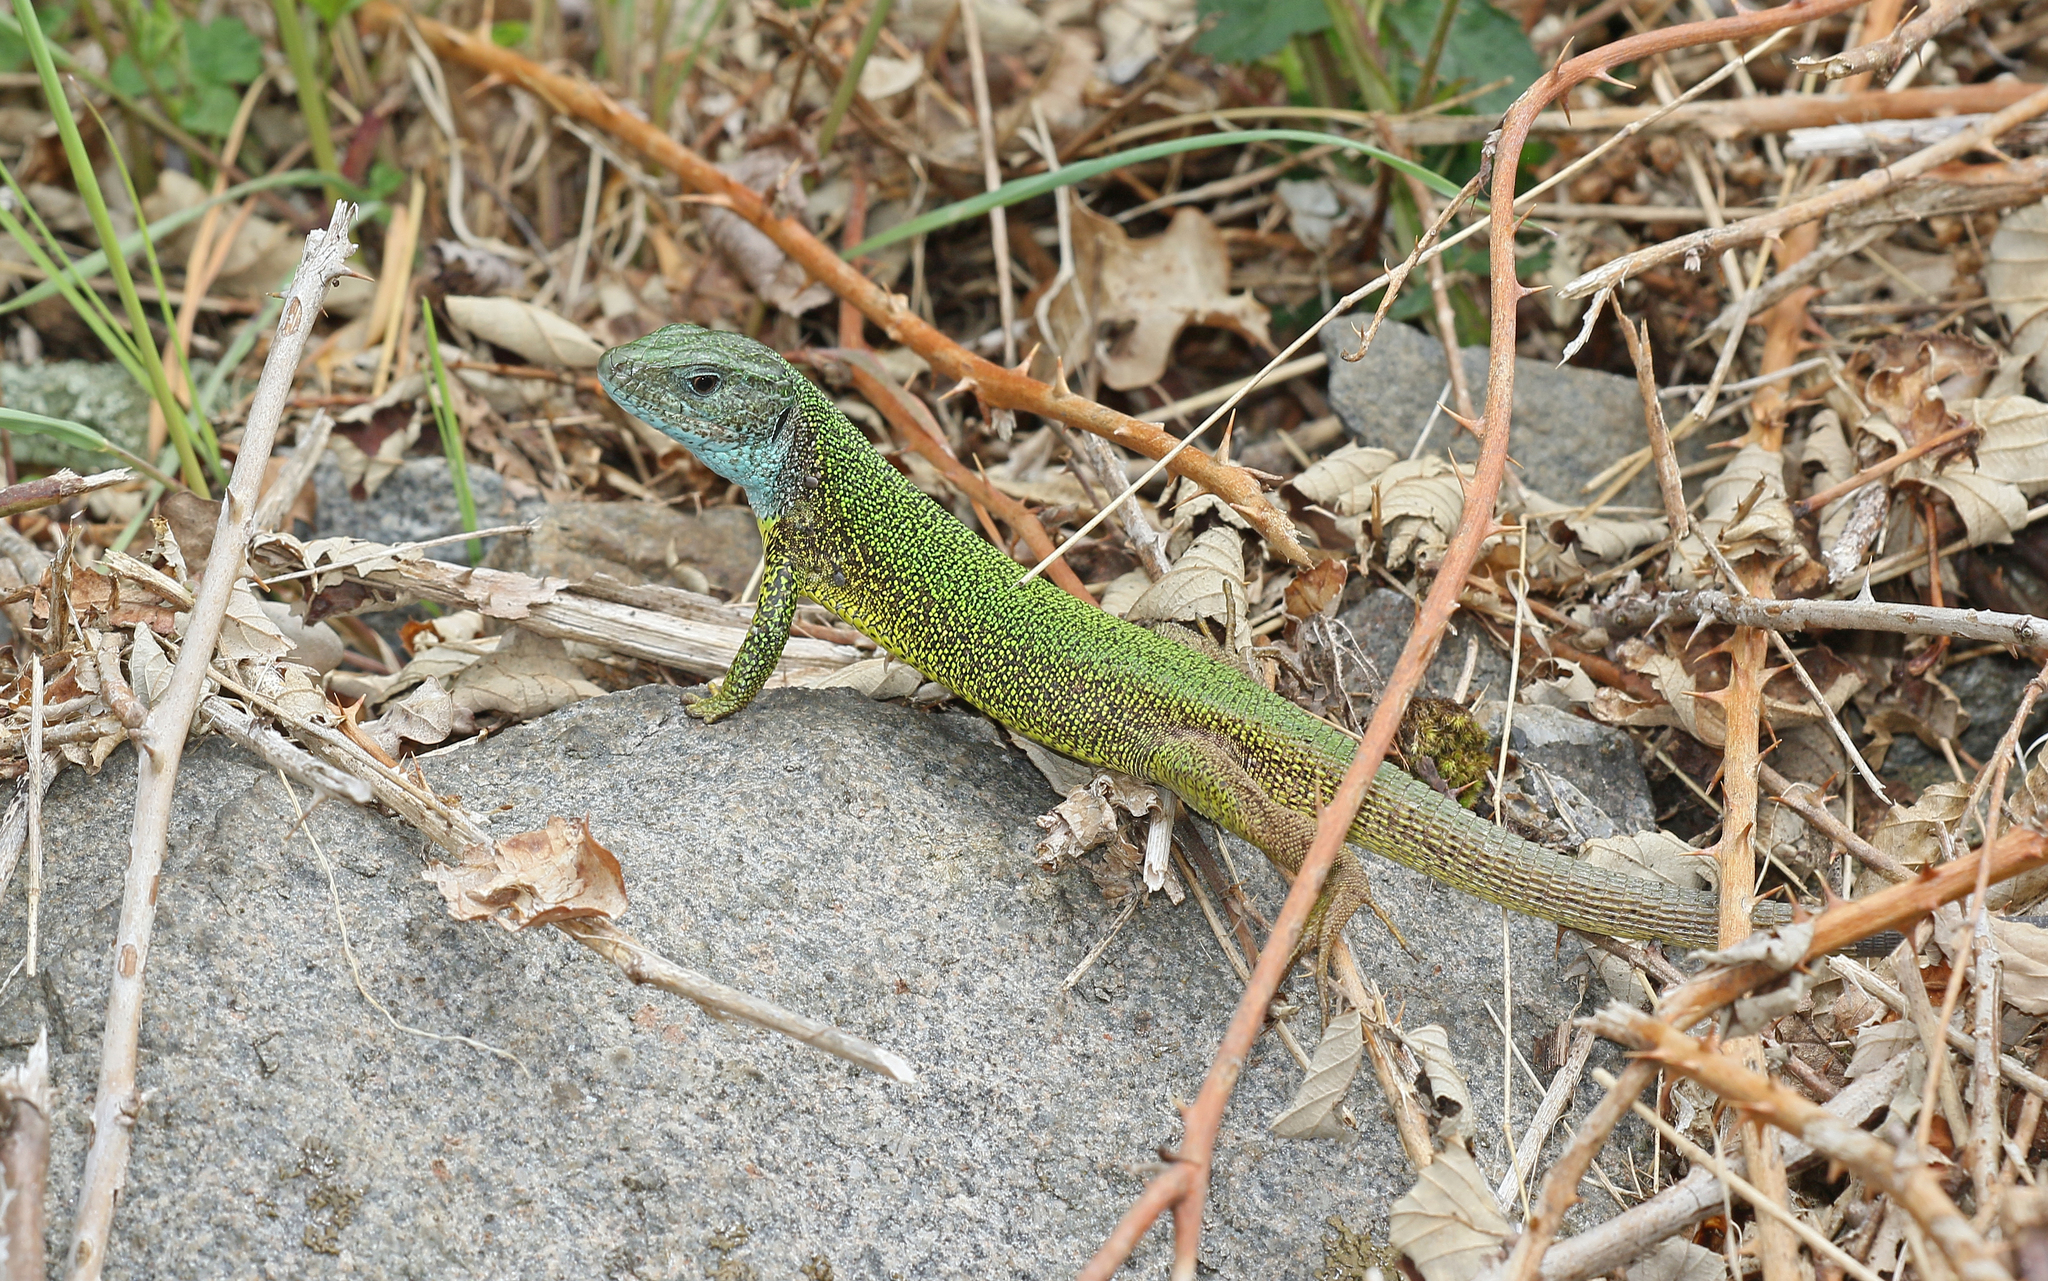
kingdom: Animalia
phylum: Chordata
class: Squamata
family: Lacertidae
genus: Lacerta
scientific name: Lacerta viridis
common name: European green lizard
